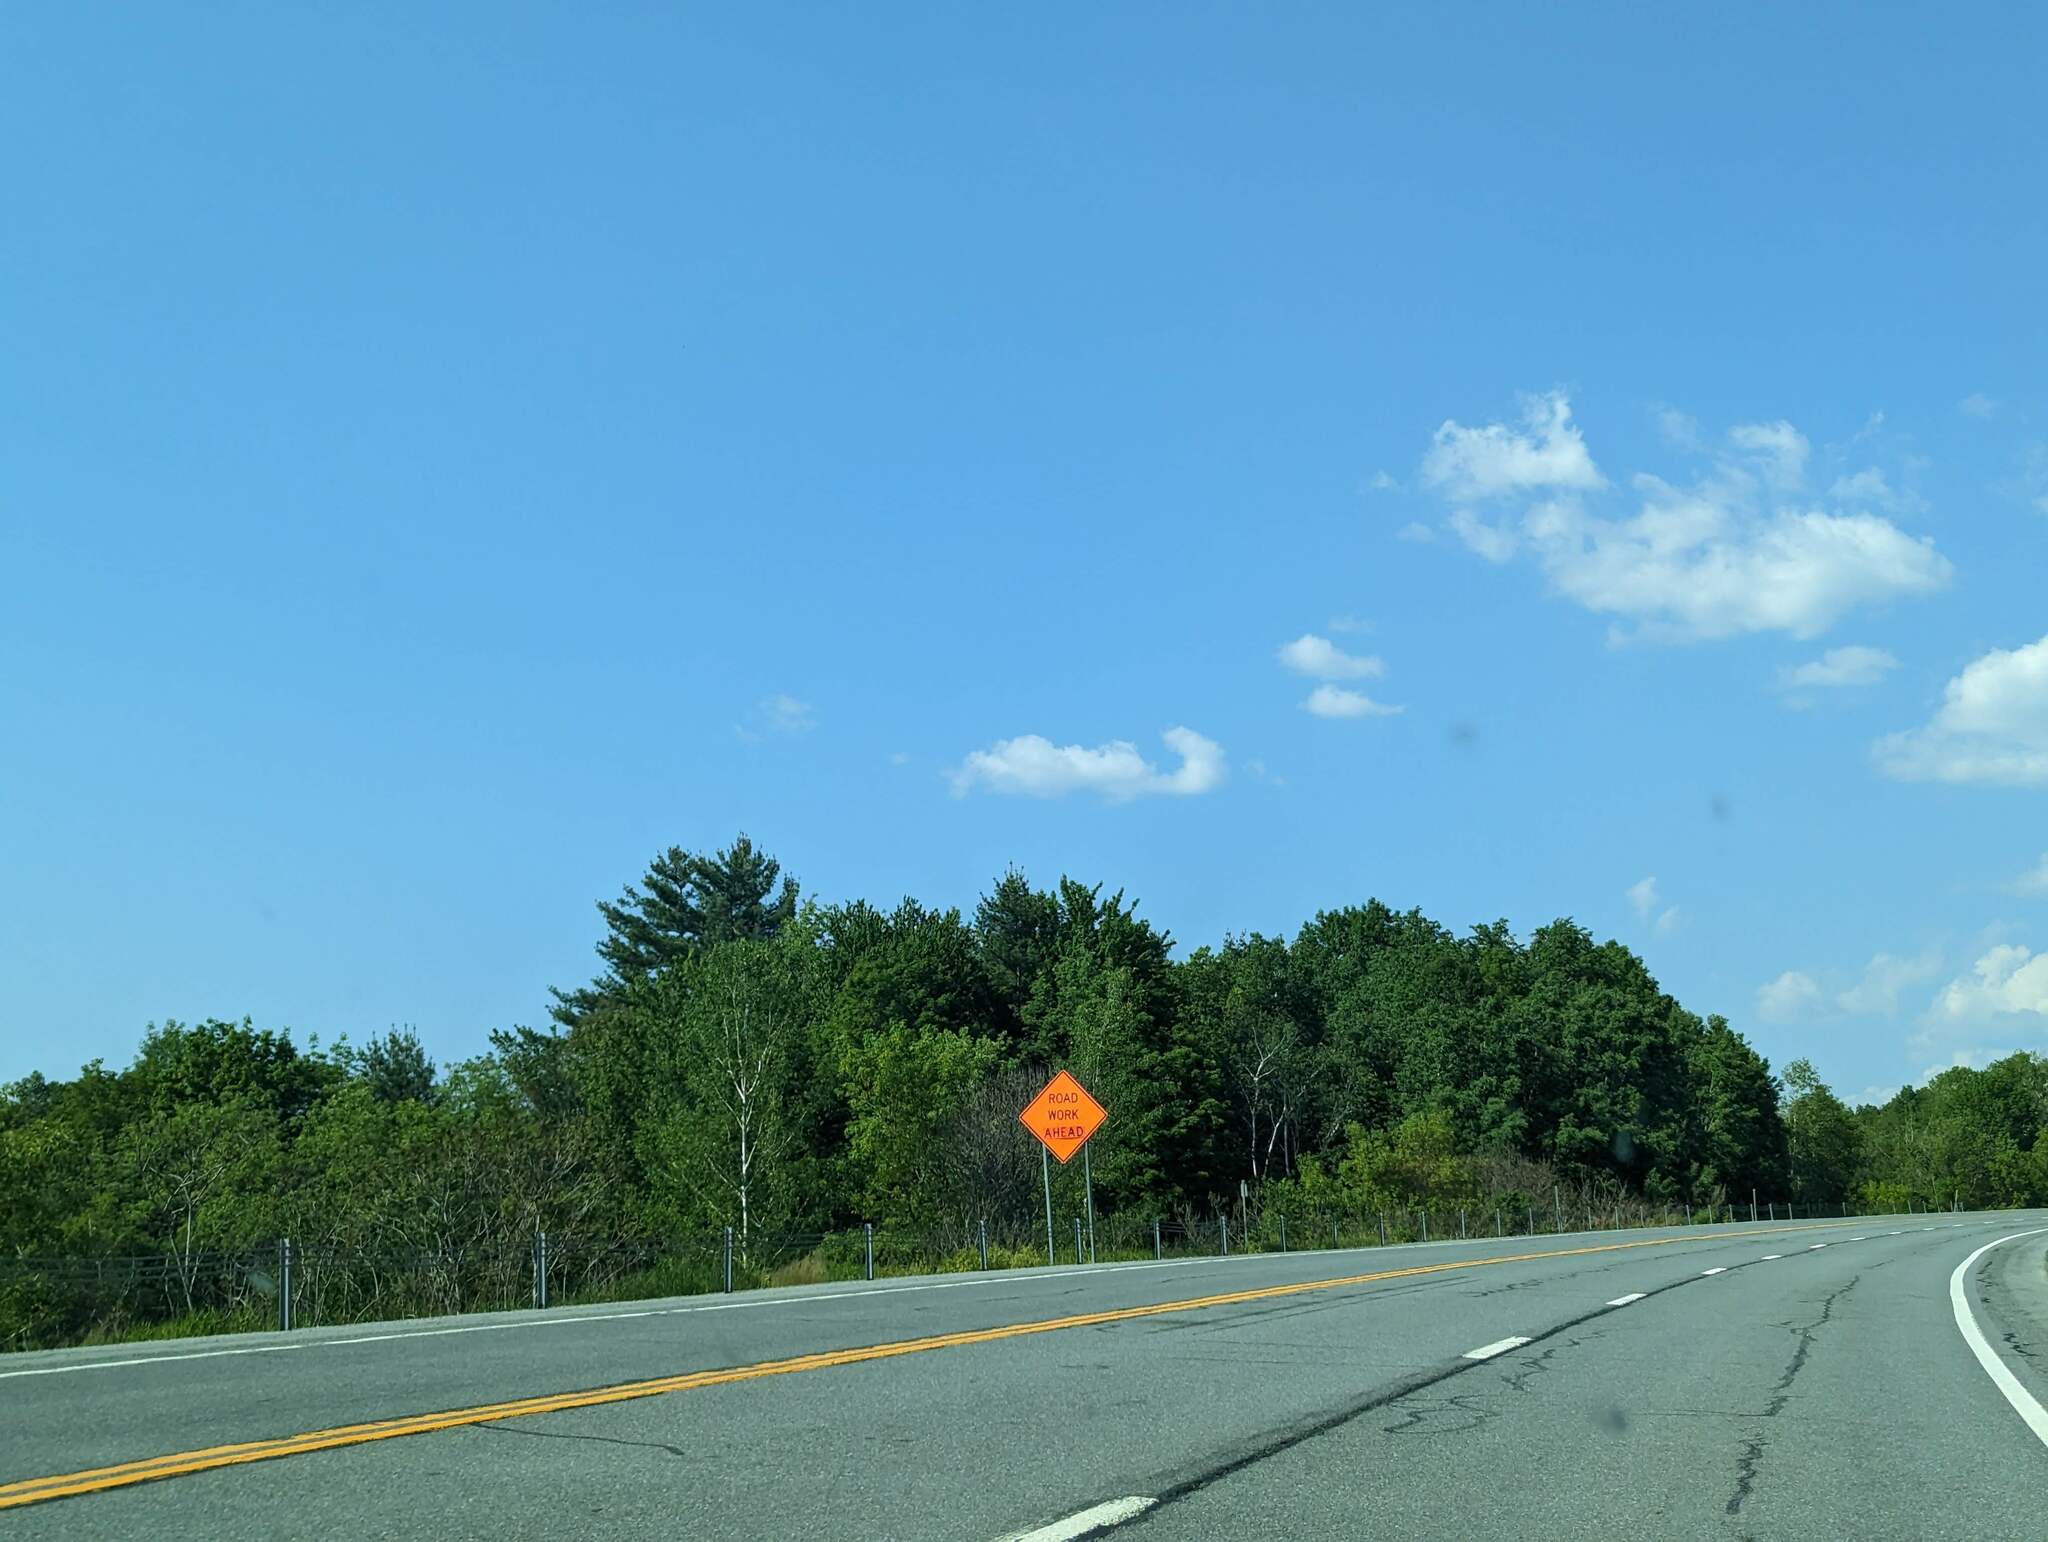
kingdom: Plantae
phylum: Tracheophyta
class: Pinopsida
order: Pinales
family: Pinaceae
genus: Pinus
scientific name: Pinus strobus
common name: Weymouth pine
